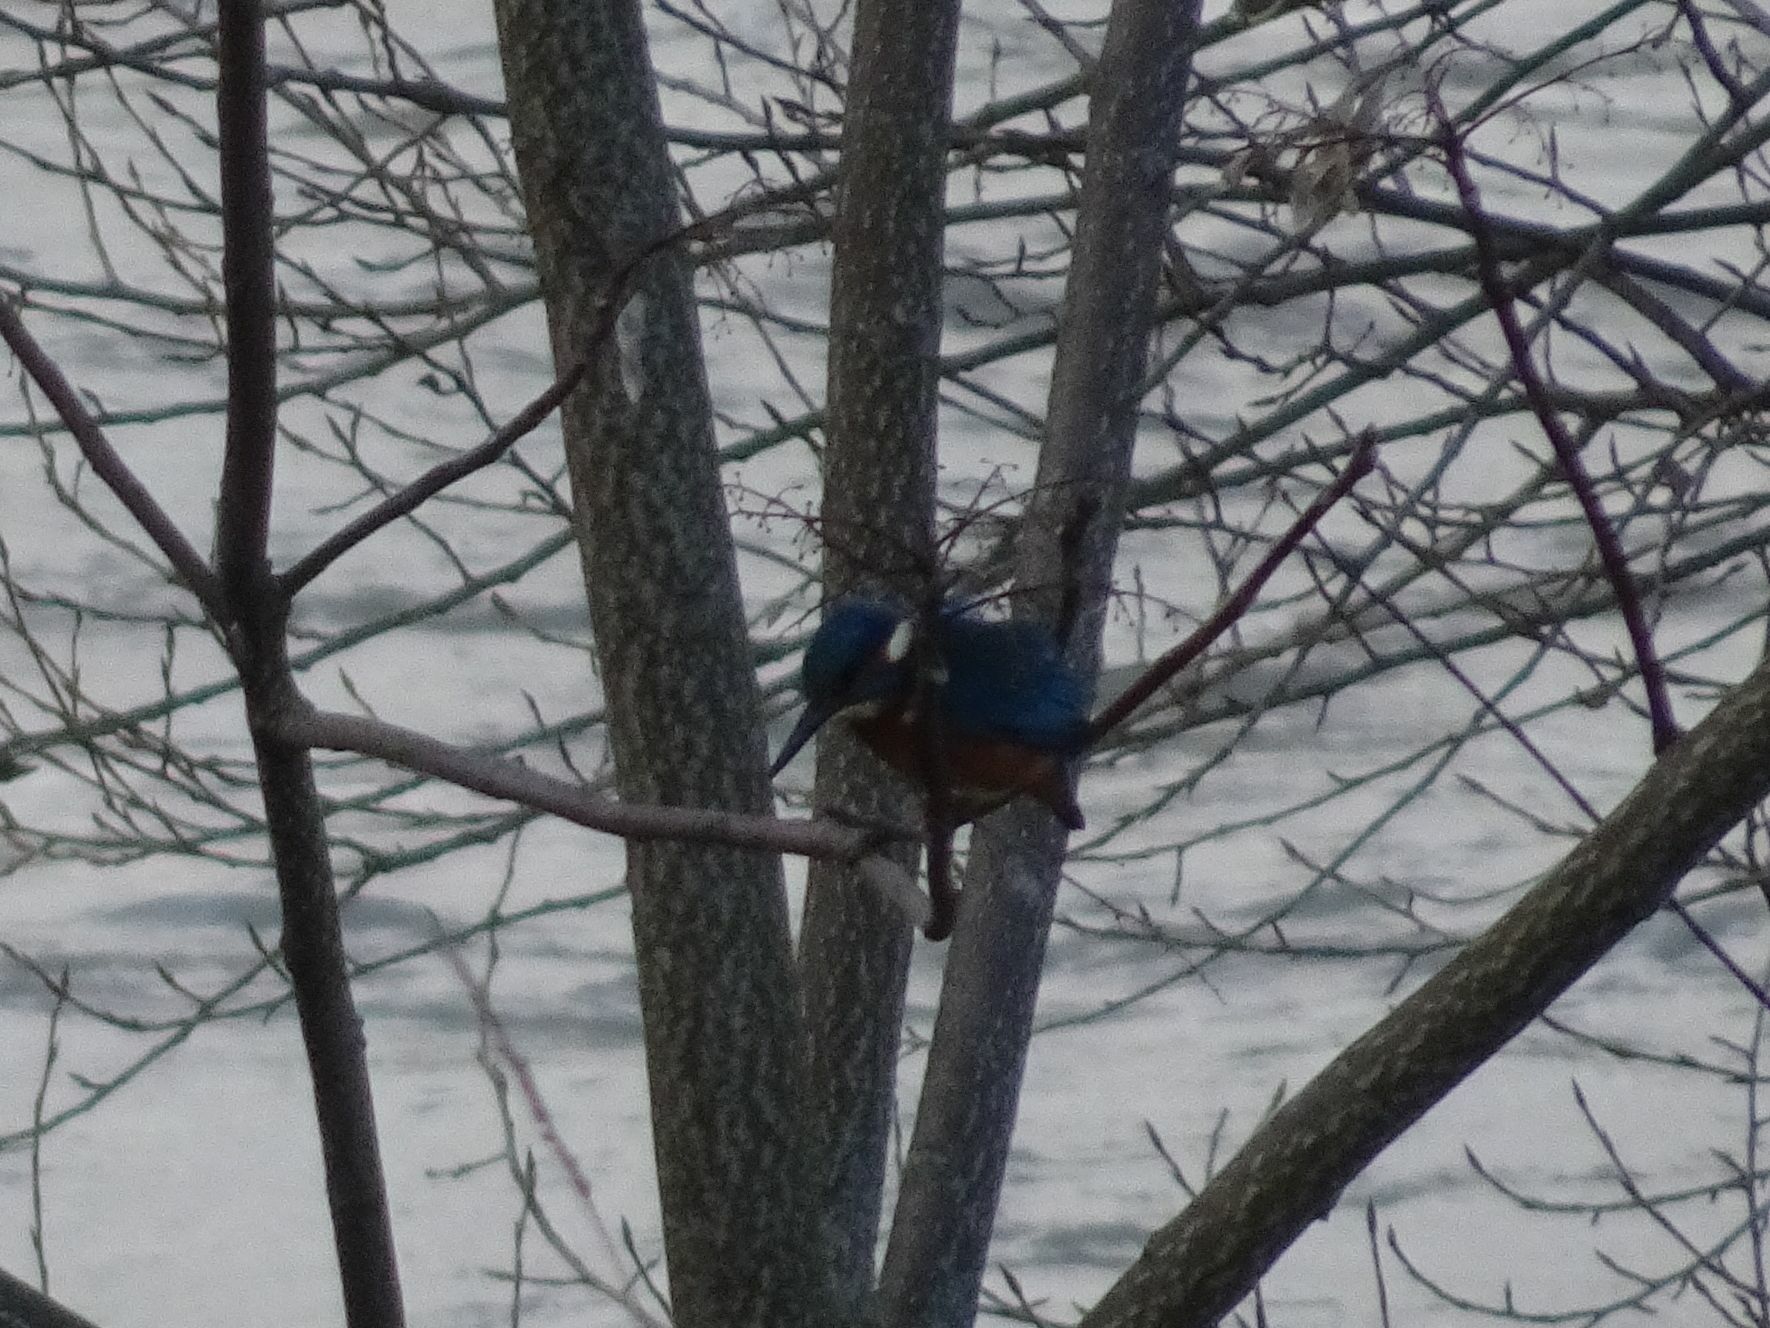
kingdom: Animalia
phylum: Chordata
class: Aves
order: Coraciiformes
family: Alcedinidae
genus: Alcedo
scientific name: Alcedo atthis
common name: Common kingfisher
